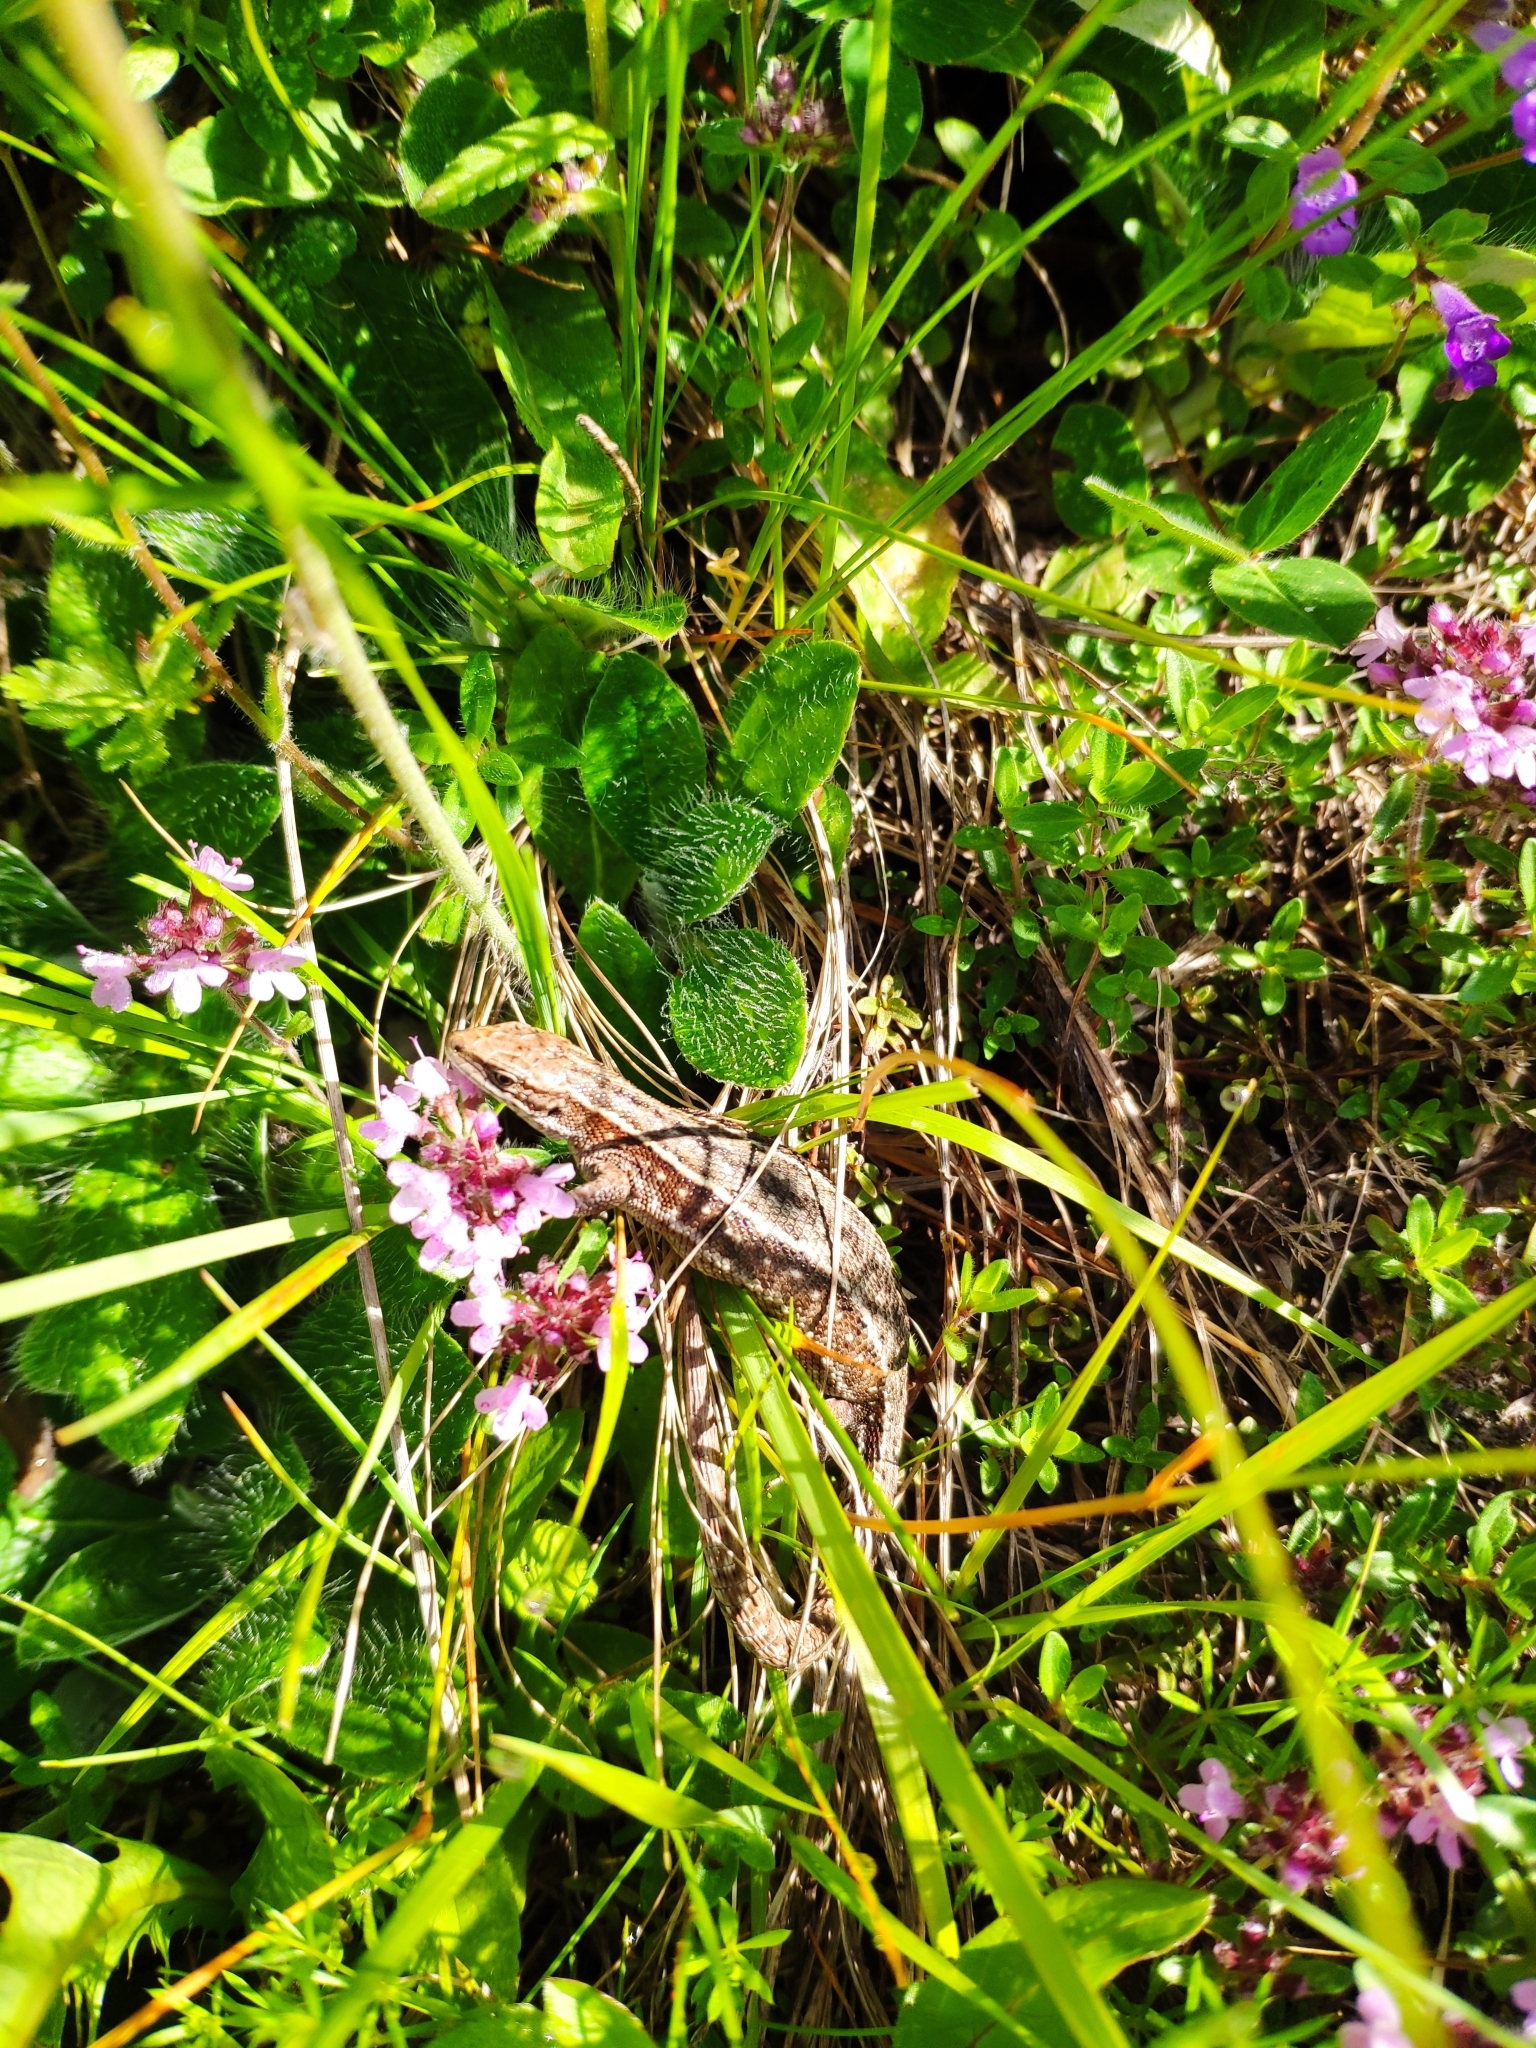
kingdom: Animalia
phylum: Chordata
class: Squamata
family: Lacertidae
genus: Zootoca
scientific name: Zootoca vivipara
